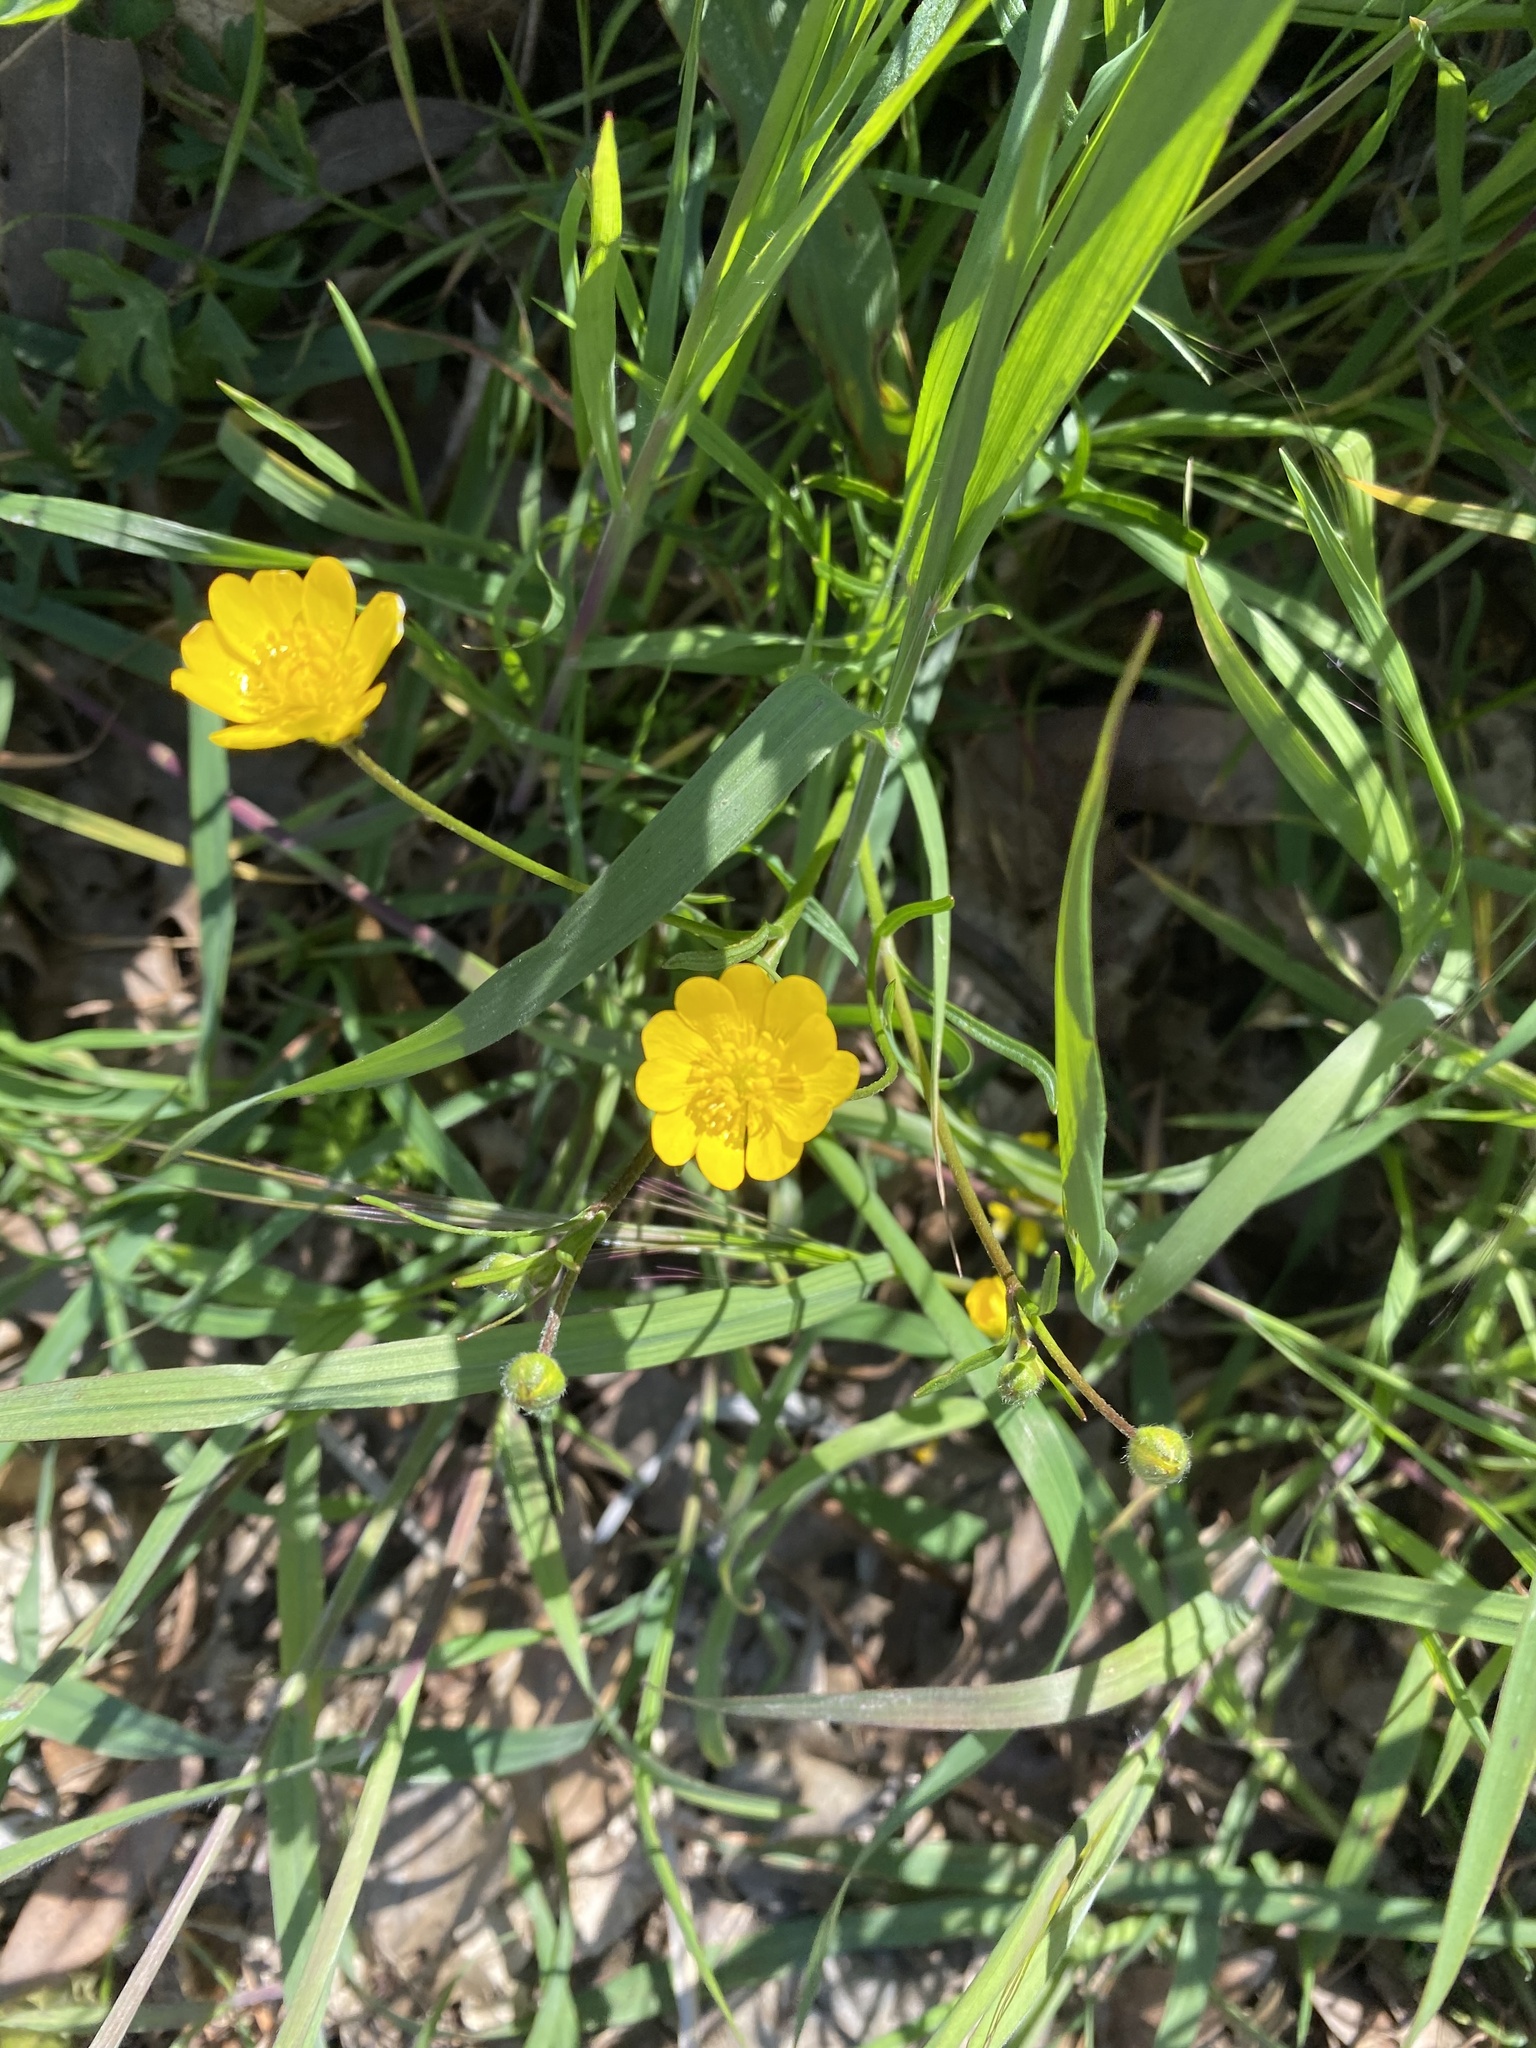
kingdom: Plantae
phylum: Tracheophyta
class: Magnoliopsida
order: Ranunculales
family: Ranunculaceae
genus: Ranunculus
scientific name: Ranunculus californicus
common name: California buttercup
